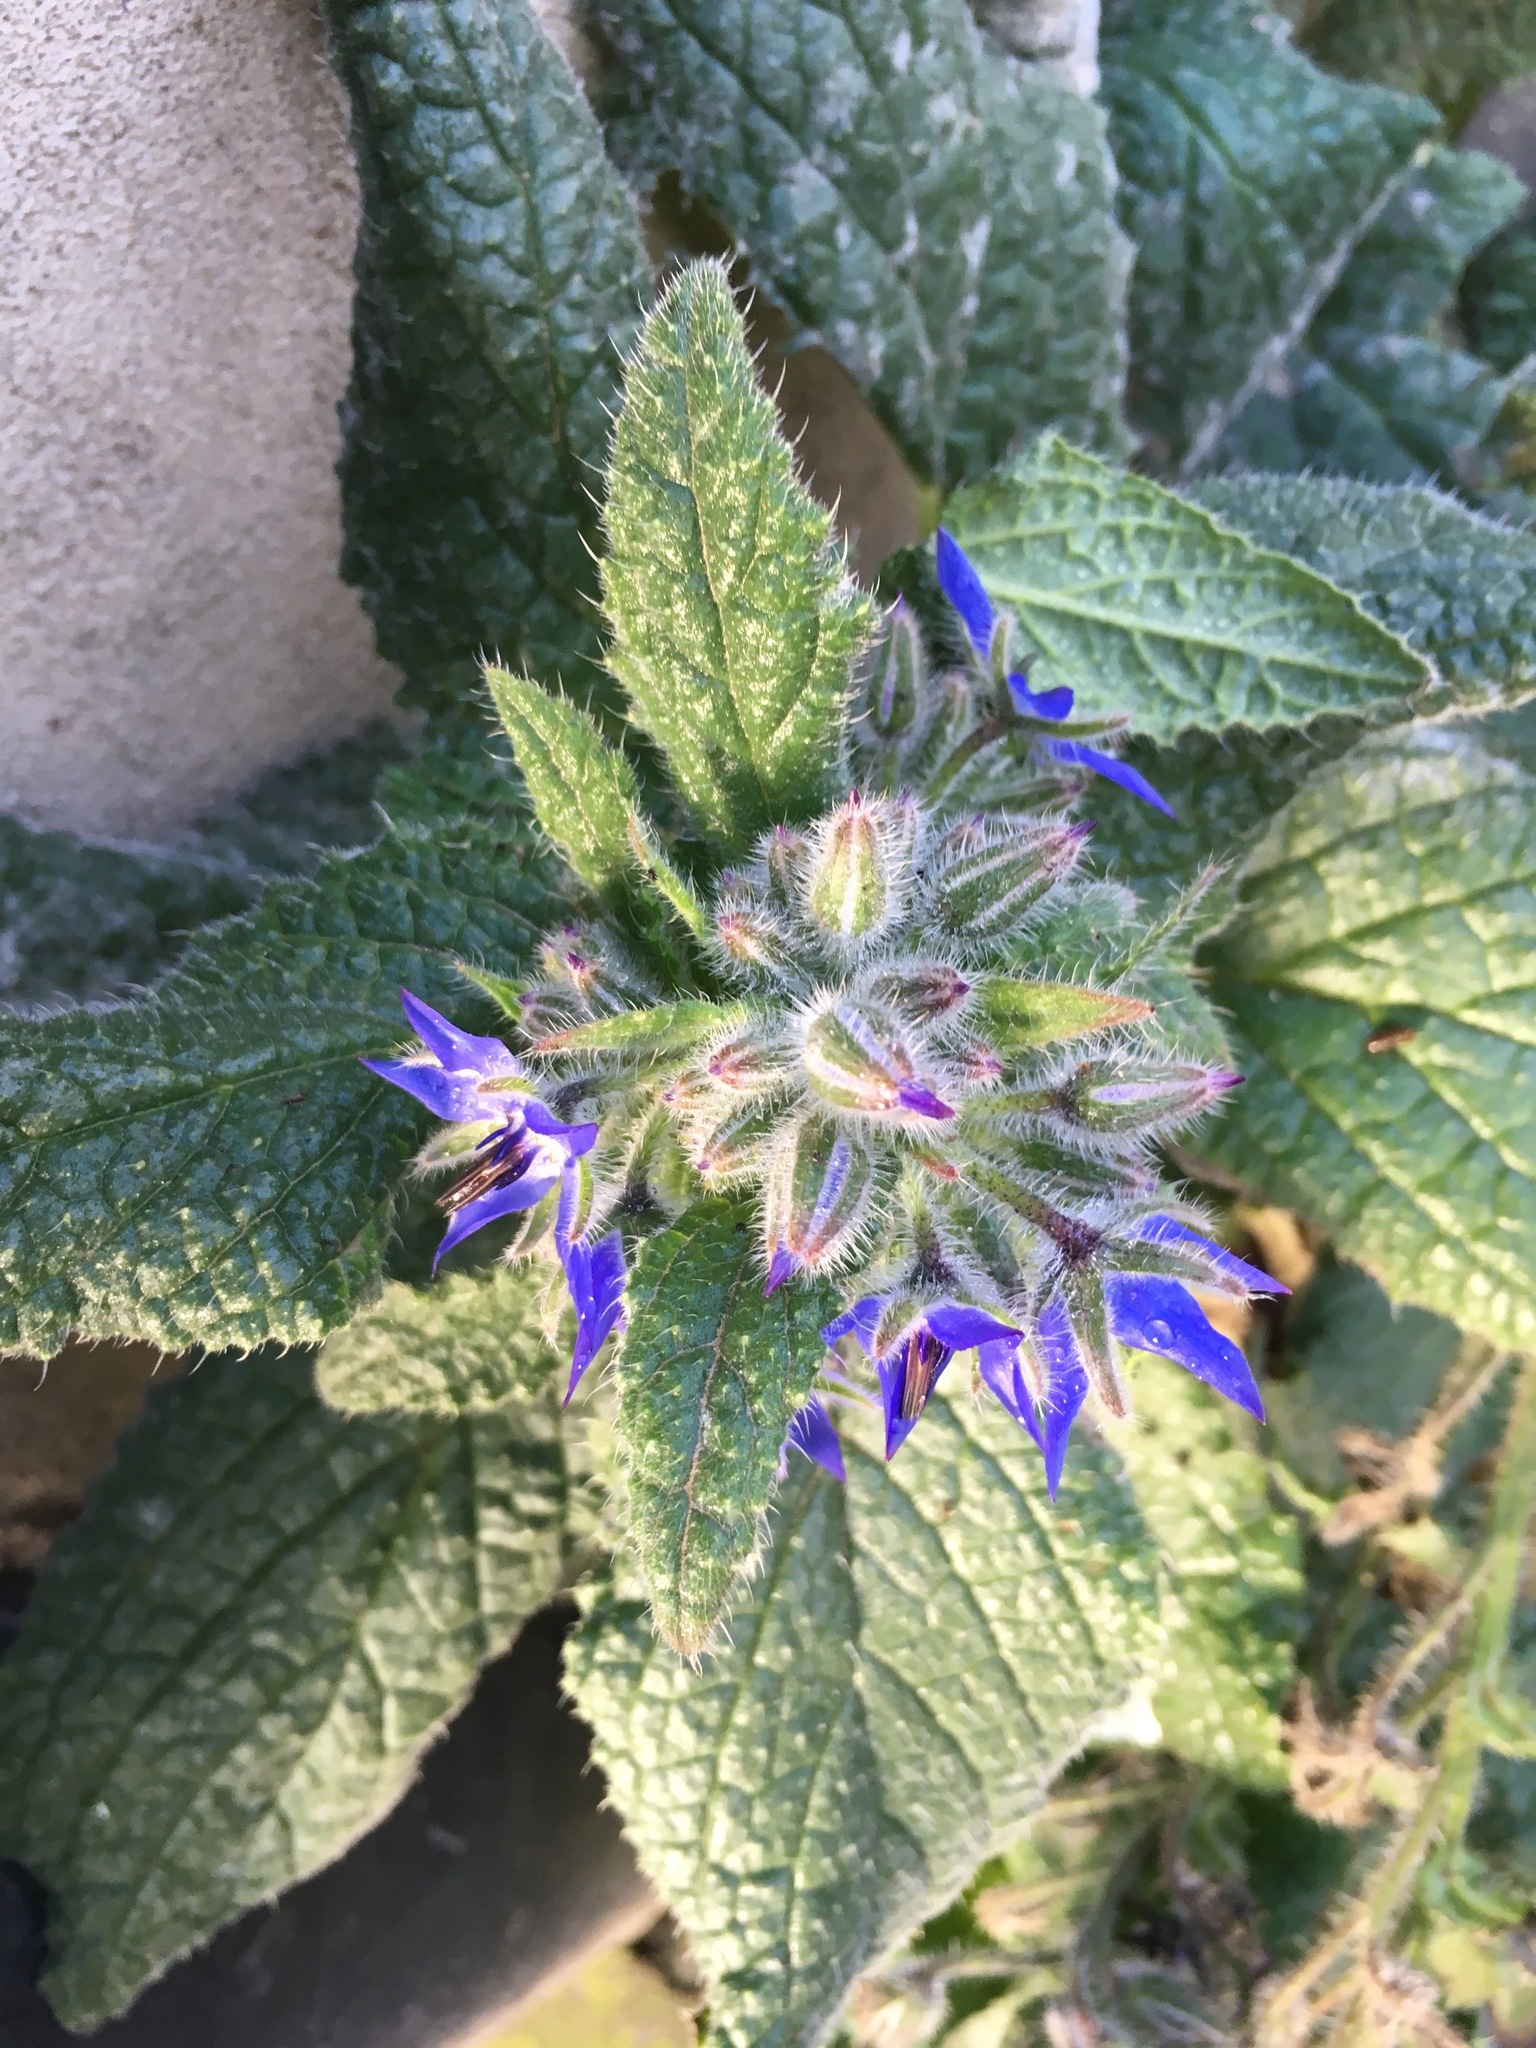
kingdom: Plantae
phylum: Tracheophyta
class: Magnoliopsida
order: Boraginales
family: Boraginaceae
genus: Borago
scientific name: Borago officinalis
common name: Borage
